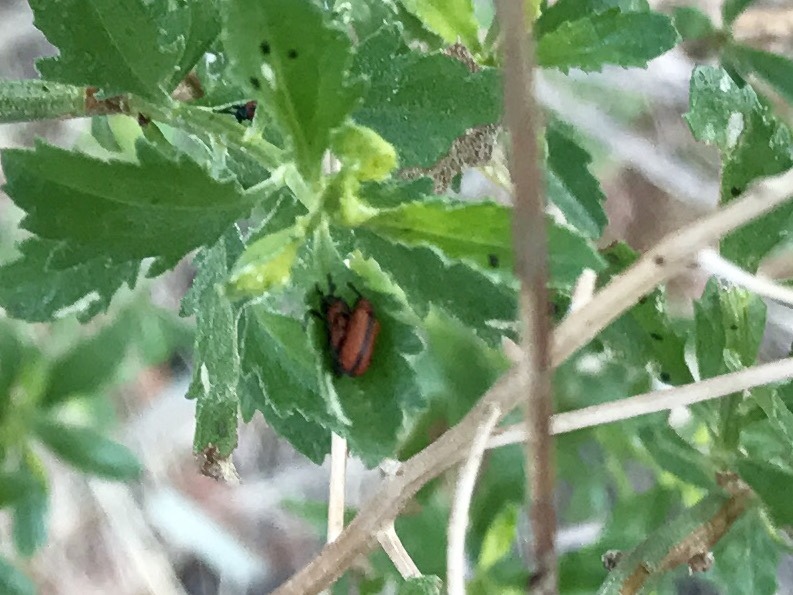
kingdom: Animalia
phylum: Arthropoda
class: Insecta
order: Coleoptera
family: Chrysomelidae
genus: Microrhopala
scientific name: Microrhopala arizonica
